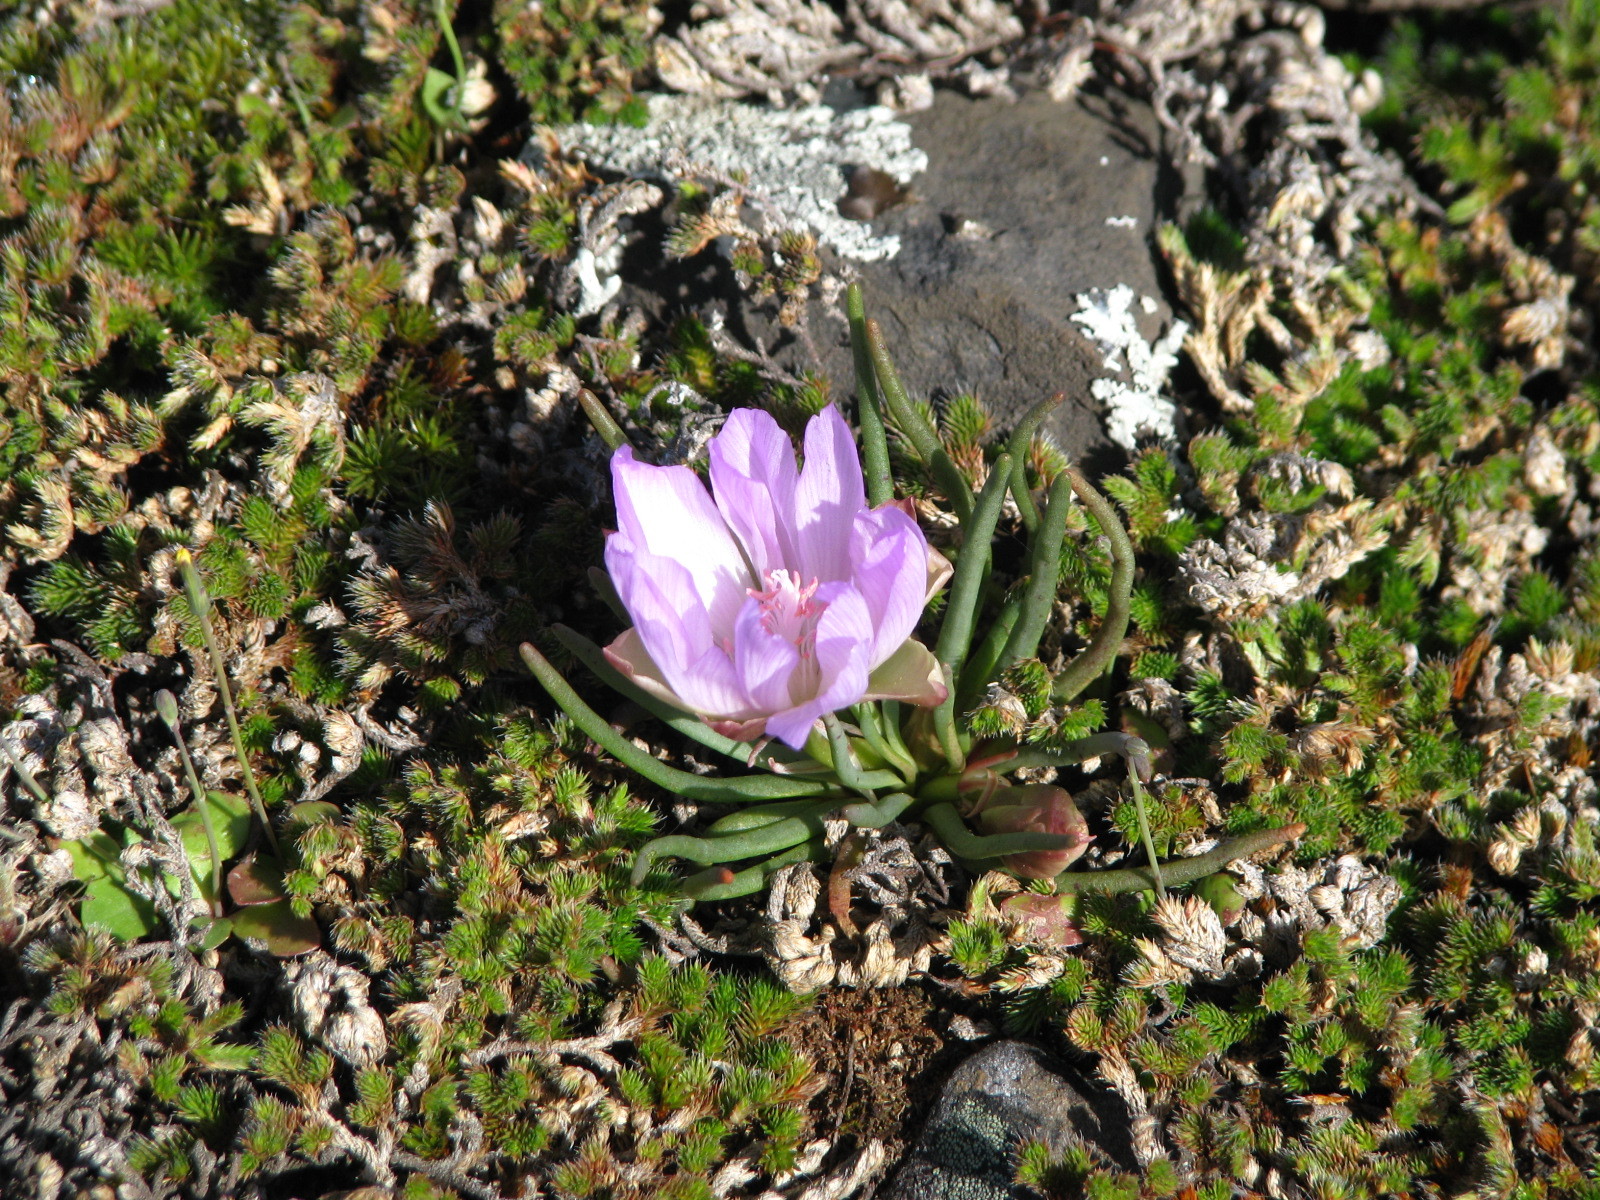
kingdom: Plantae
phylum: Tracheophyta
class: Magnoliopsida
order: Caryophyllales
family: Montiaceae
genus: Lewisia
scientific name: Lewisia rediviva
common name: Bitter-root
